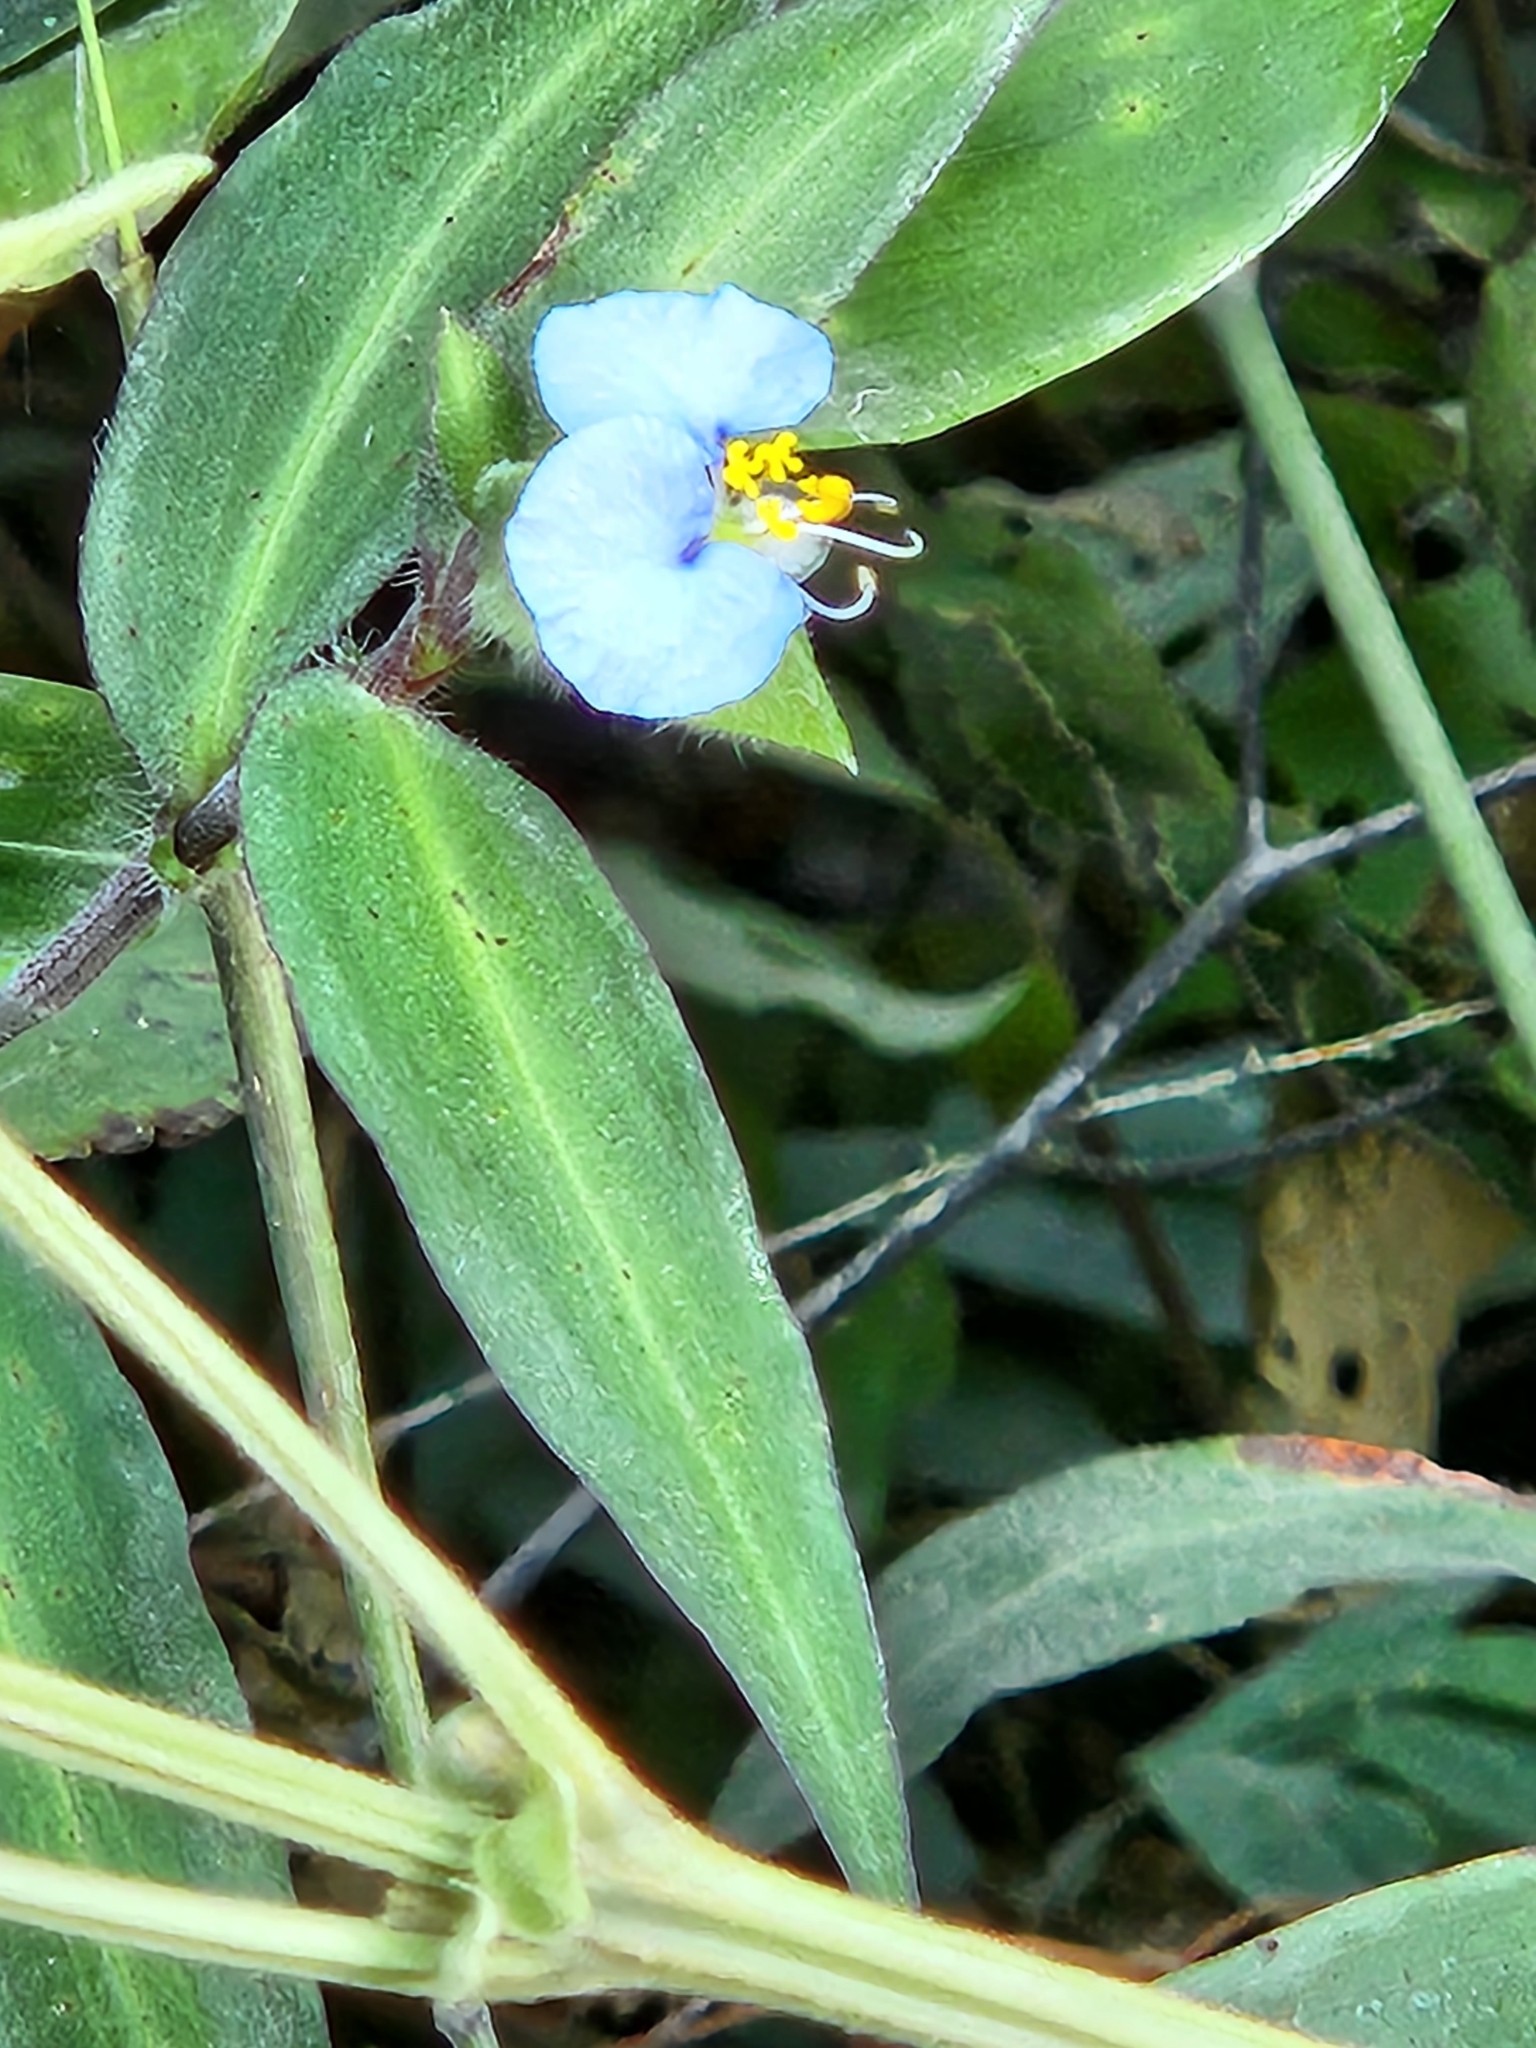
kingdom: Plantae
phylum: Tracheophyta
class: Liliopsida
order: Commelinales
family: Commelinaceae
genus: Commelina
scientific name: Commelina erecta
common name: Blousel blommetjie
